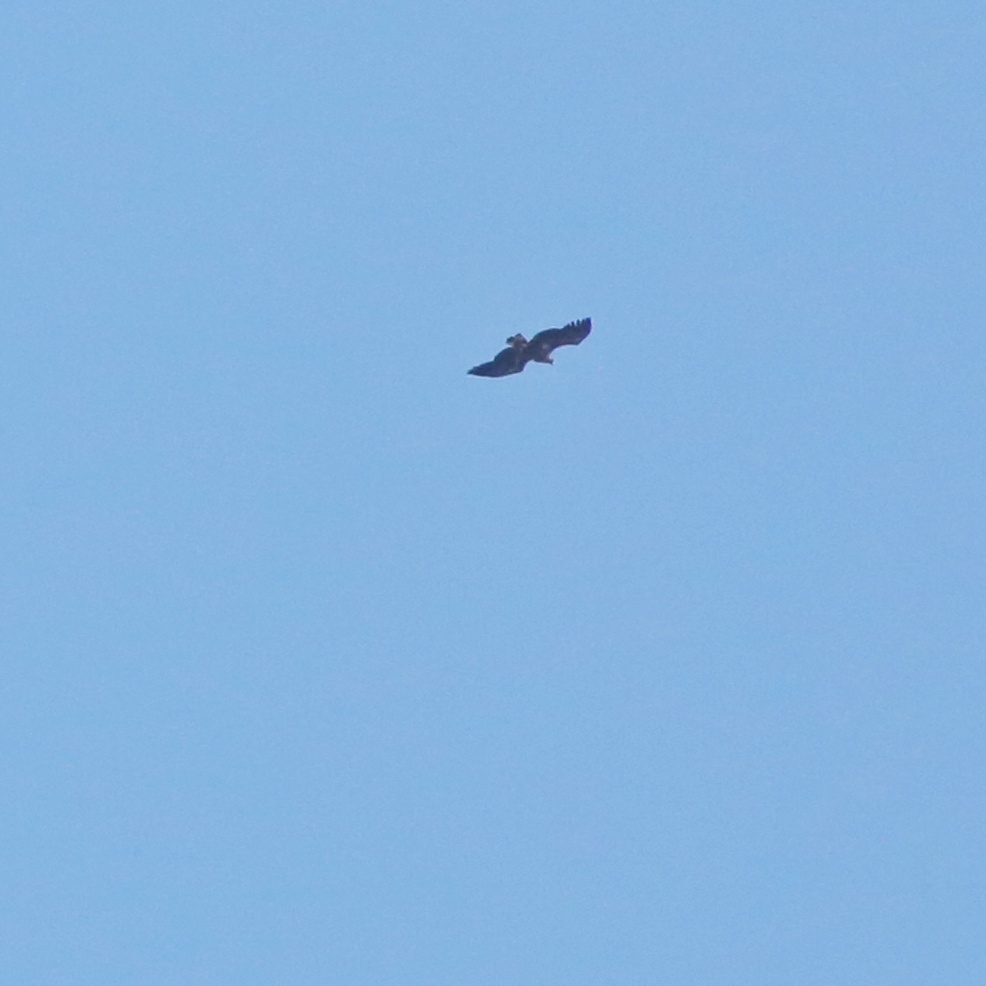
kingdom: Animalia
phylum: Chordata
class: Aves
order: Accipitriformes
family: Accipitridae
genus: Haliaeetus
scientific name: Haliaeetus albicilla
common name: White-tailed eagle
